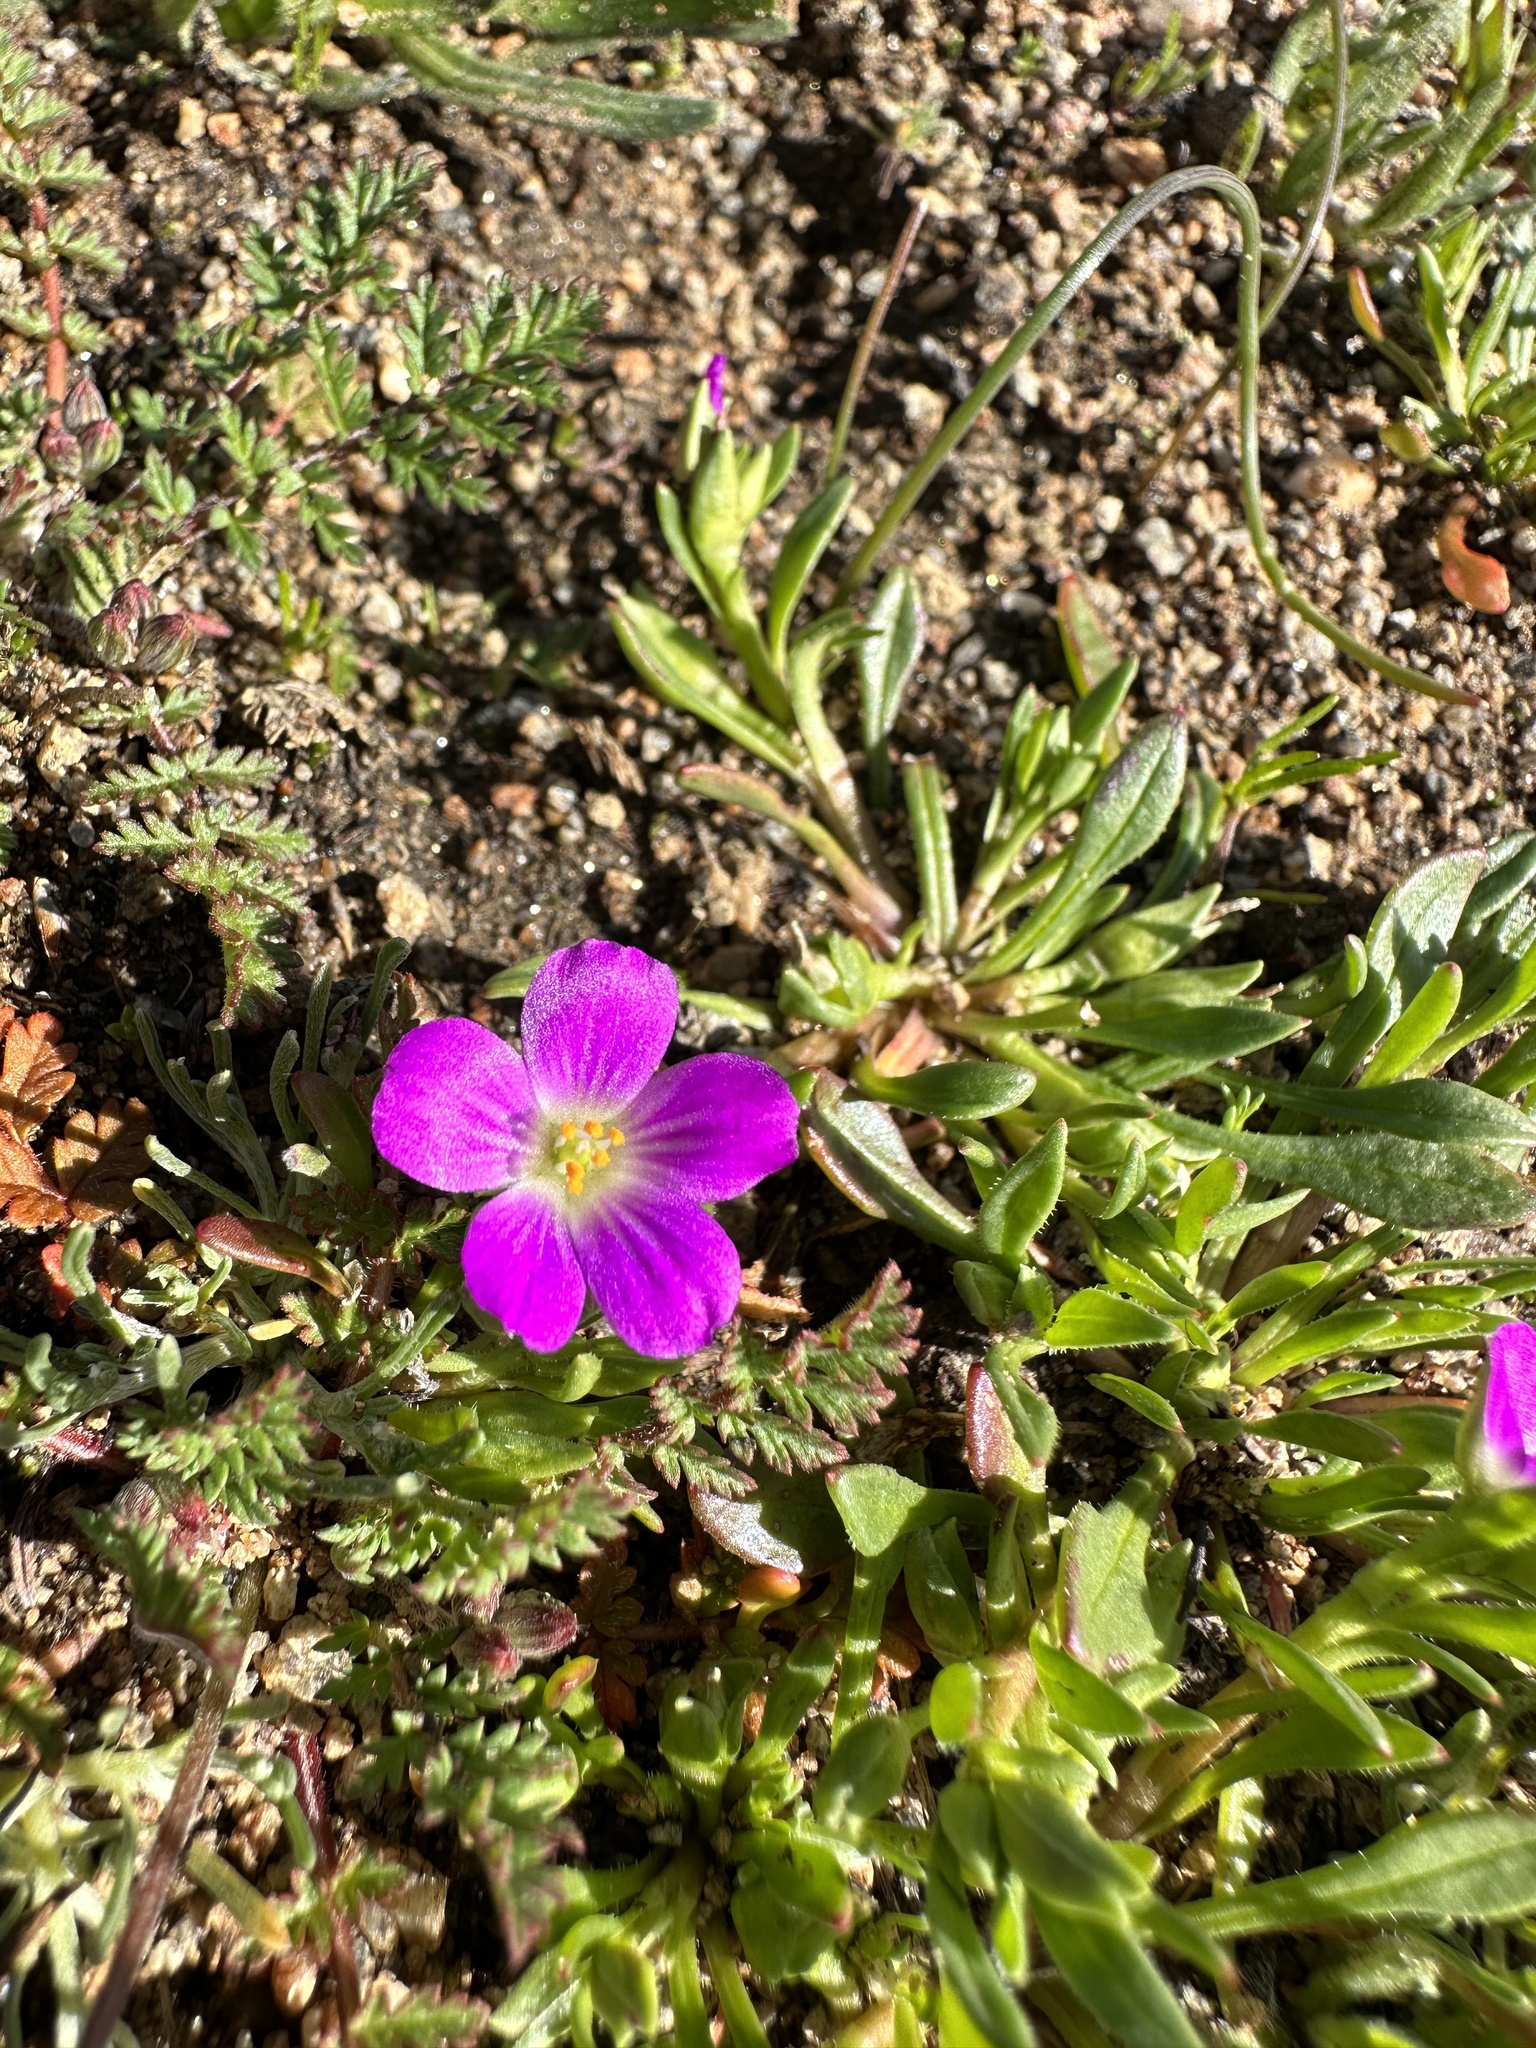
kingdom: Plantae
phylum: Tracheophyta
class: Magnoliopsida
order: Caryophyllales
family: Montiaceae
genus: Calandrinia
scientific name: Calandrinia menziesii
